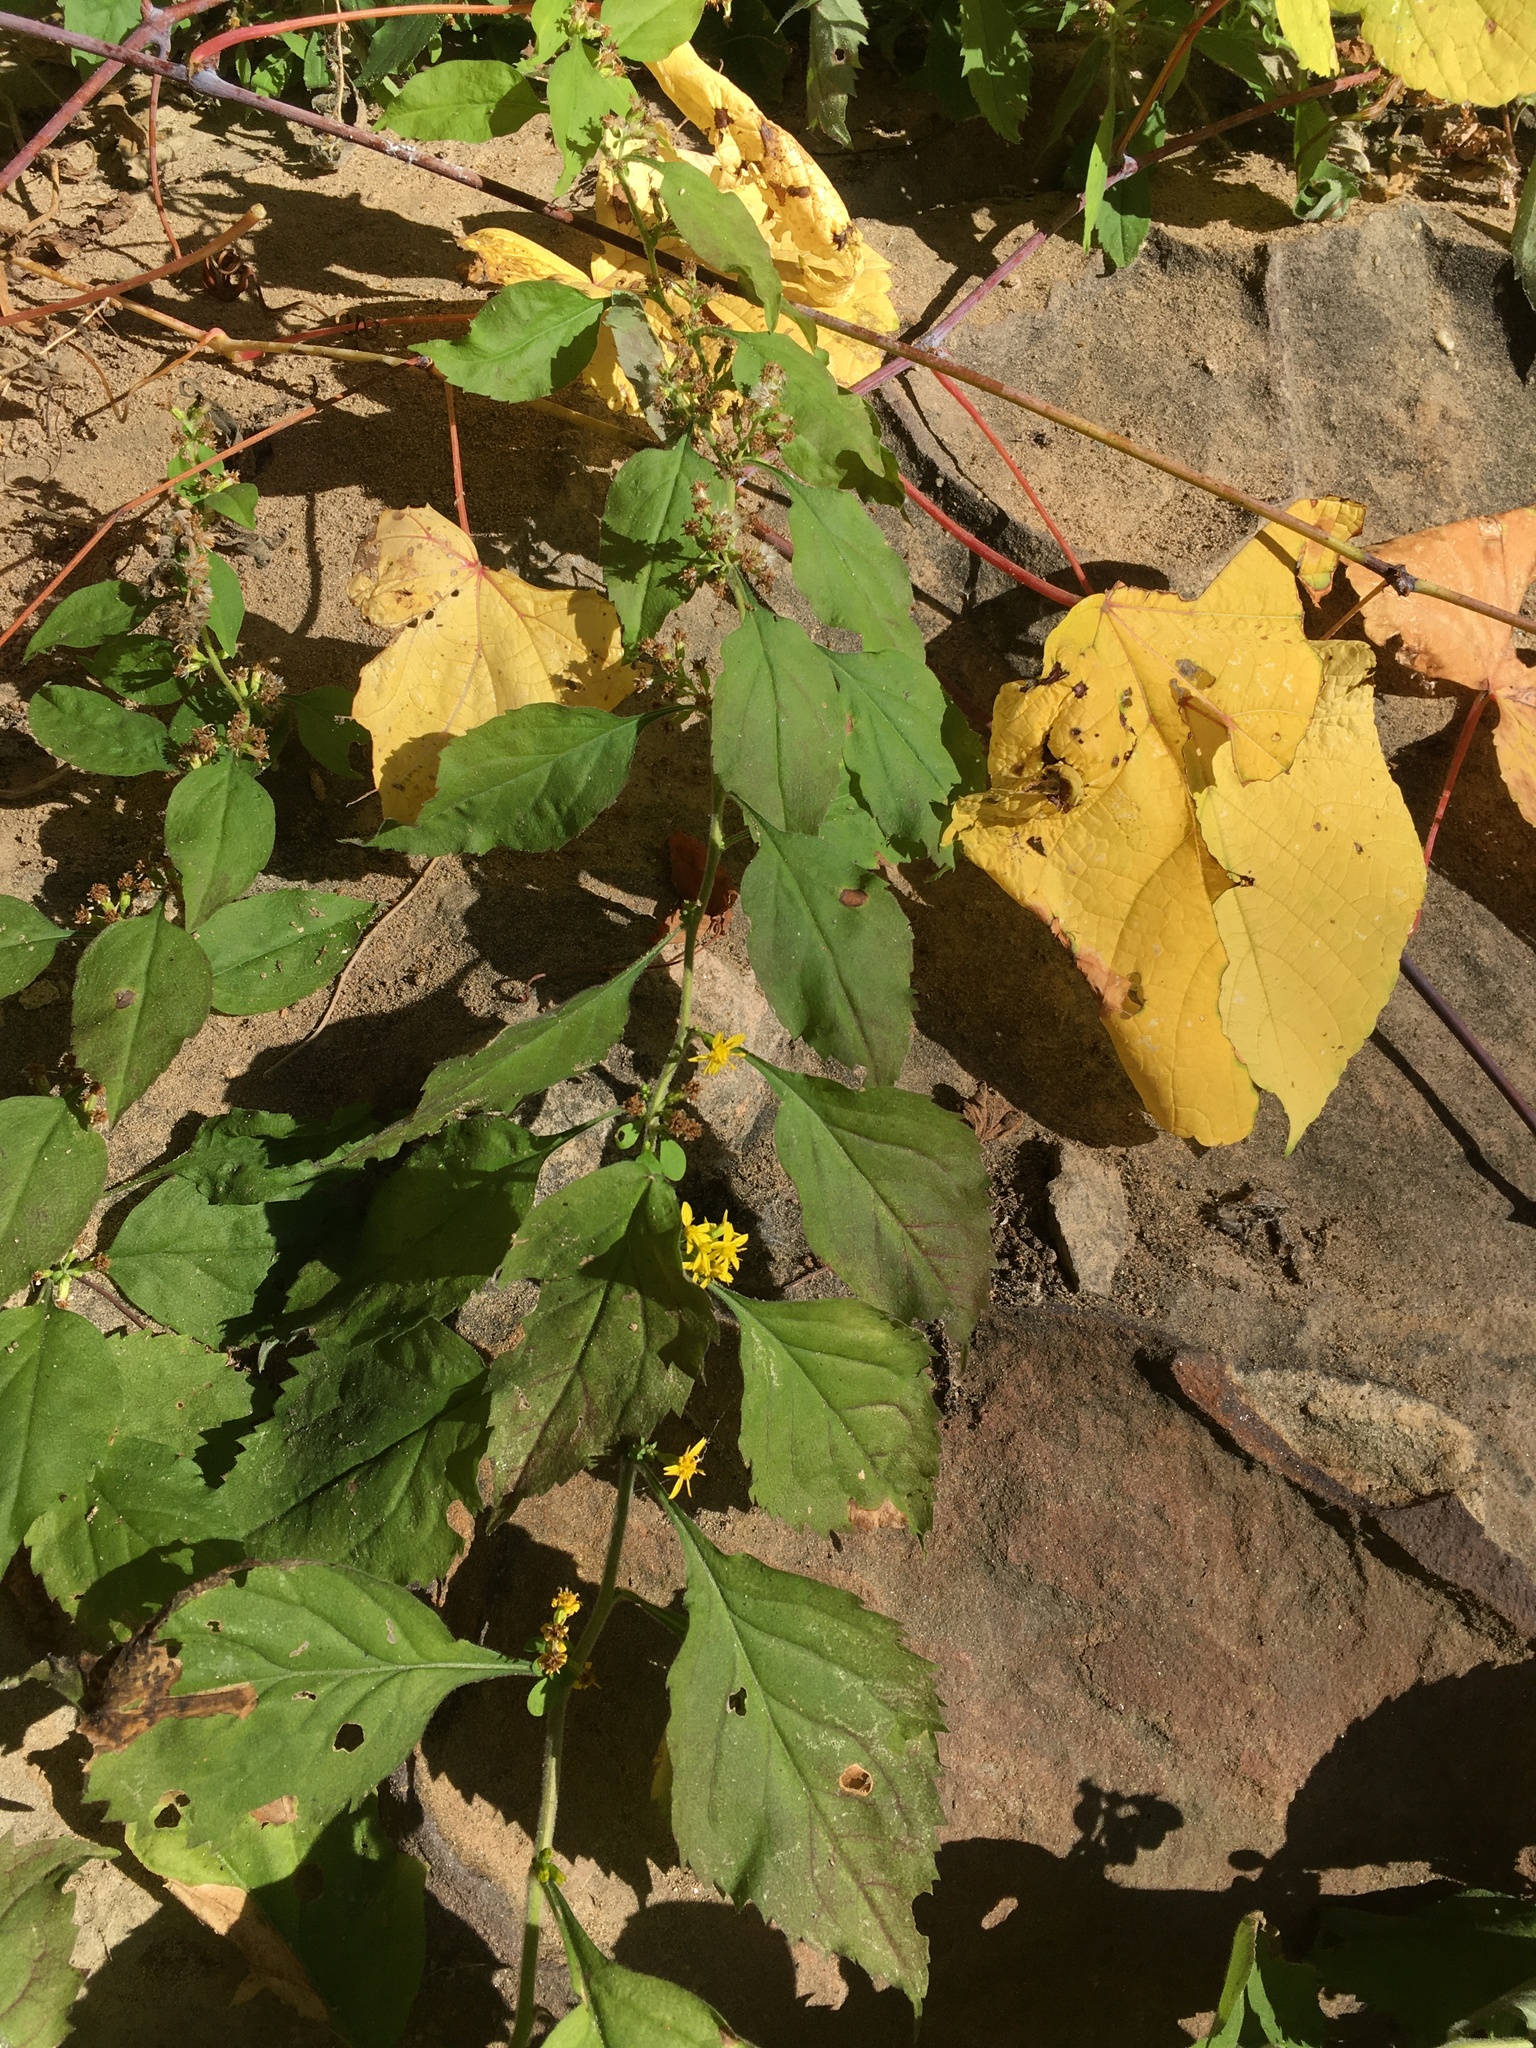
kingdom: Plantae
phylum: Tracheophyta
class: Magnoliopsida
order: Asterales
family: Asteraceae
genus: Solidago
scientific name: Solidago albopilosa
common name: White-hair goldenrod
